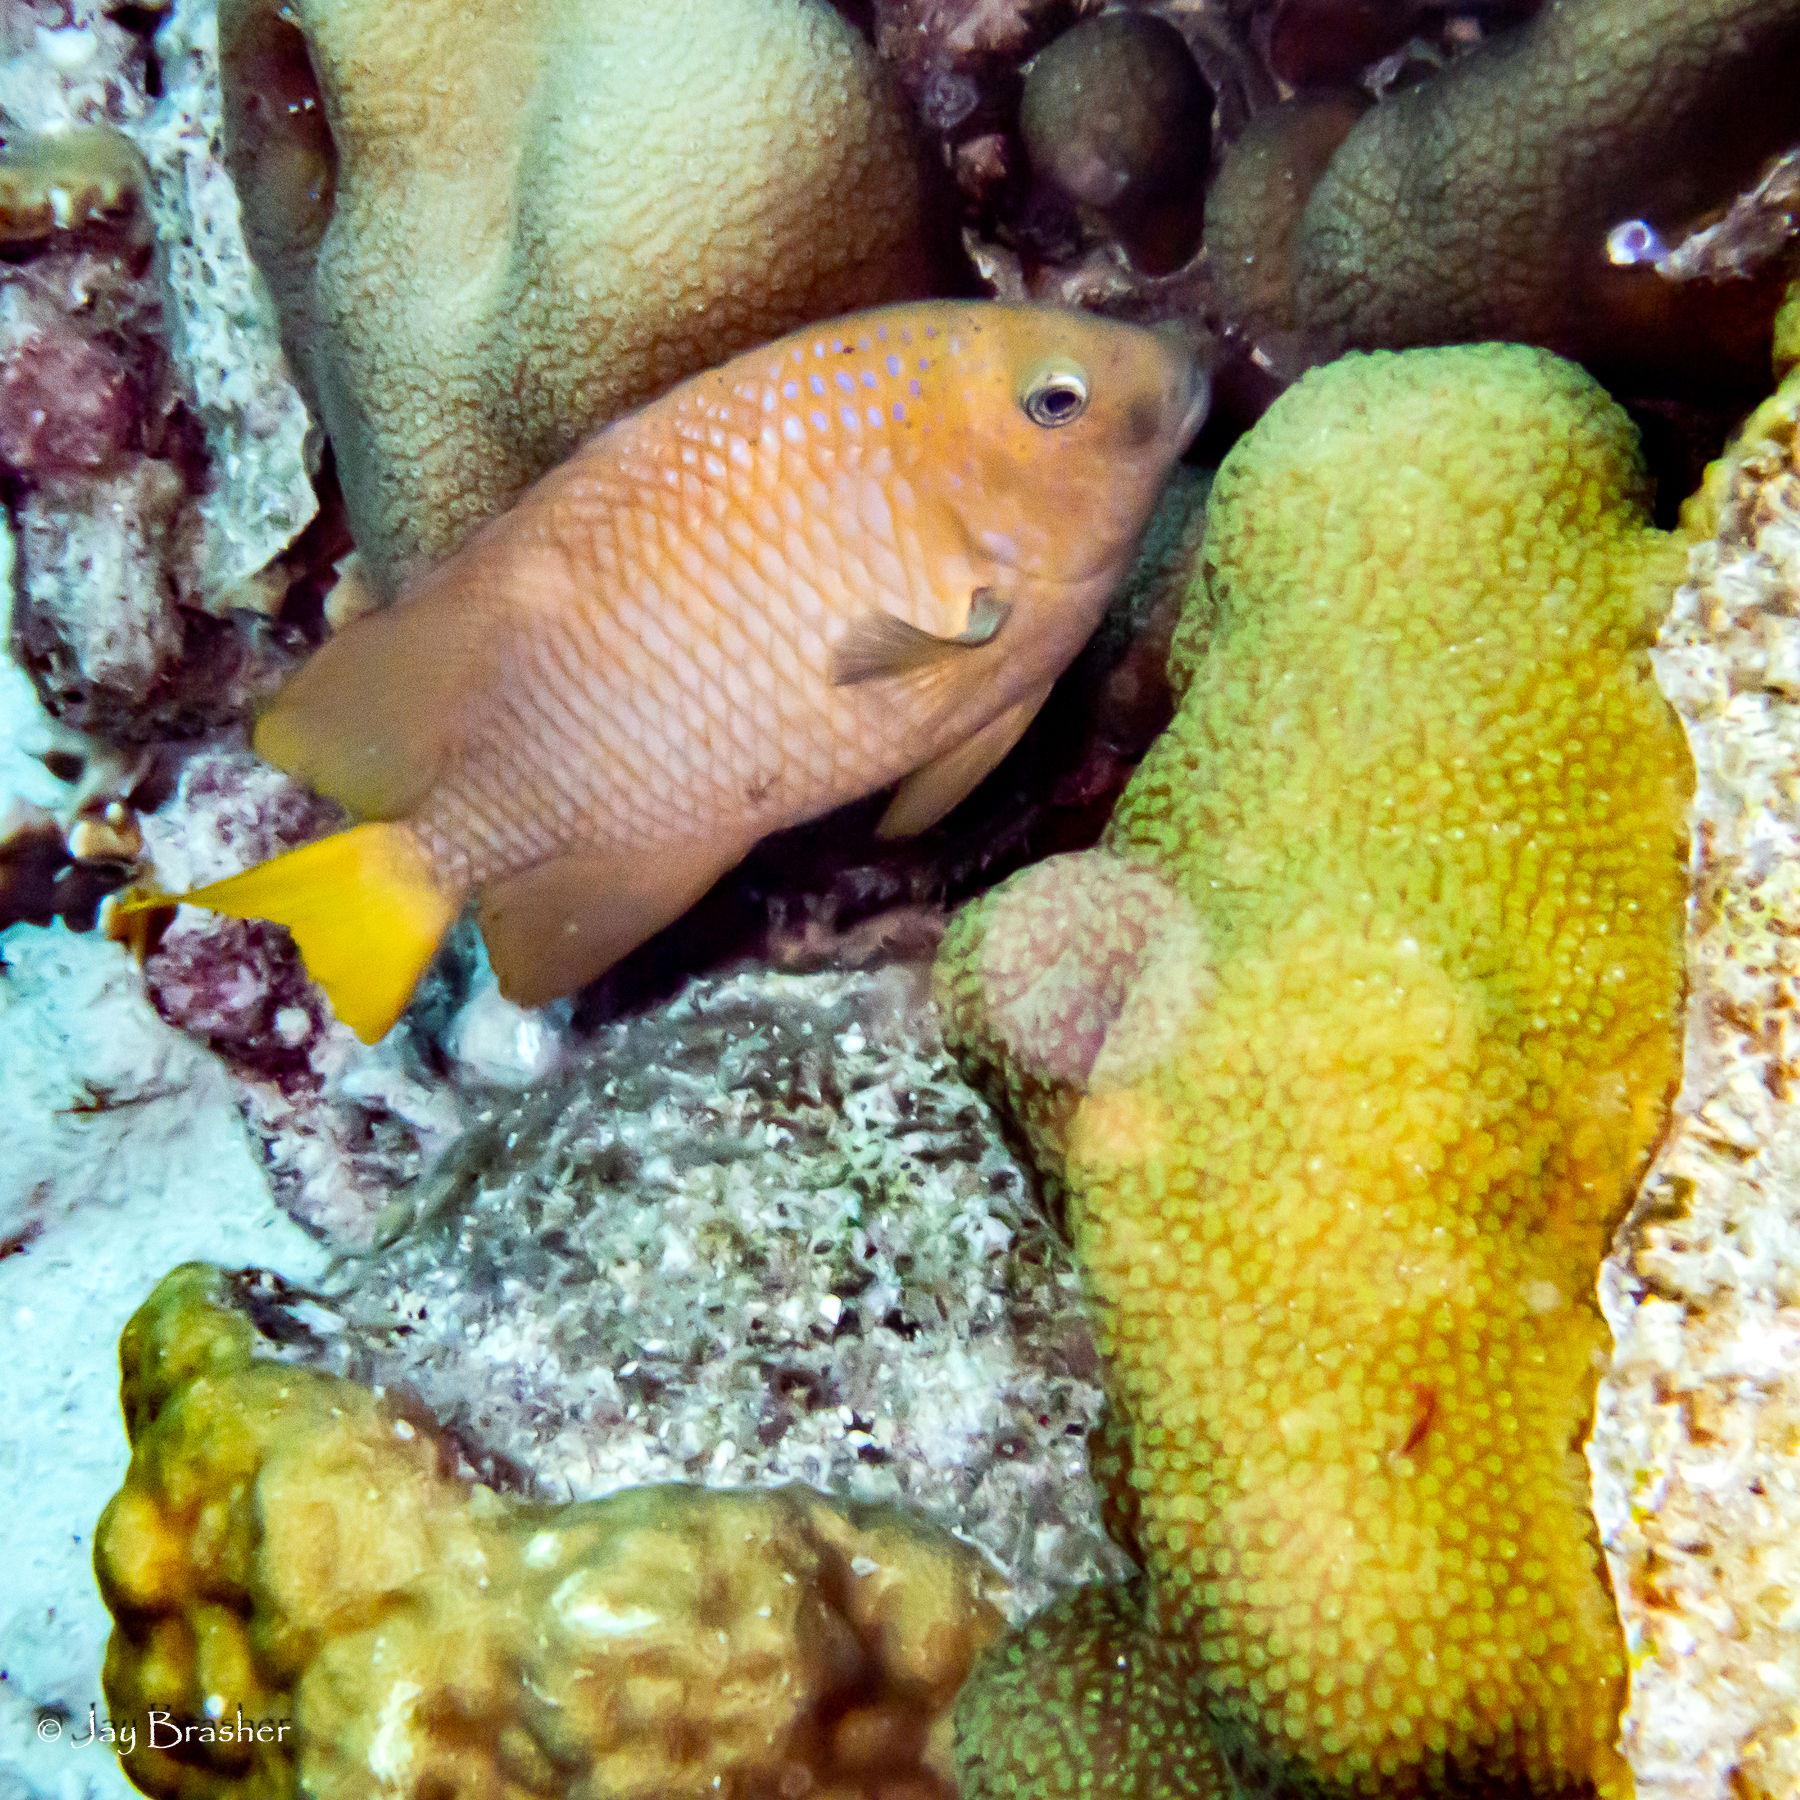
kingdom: Animalia
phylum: Chordata
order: Perciformes
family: Pomacentridae
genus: Microspathodon
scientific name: Microspathodon chrysurus
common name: Yellowtail damselfish
